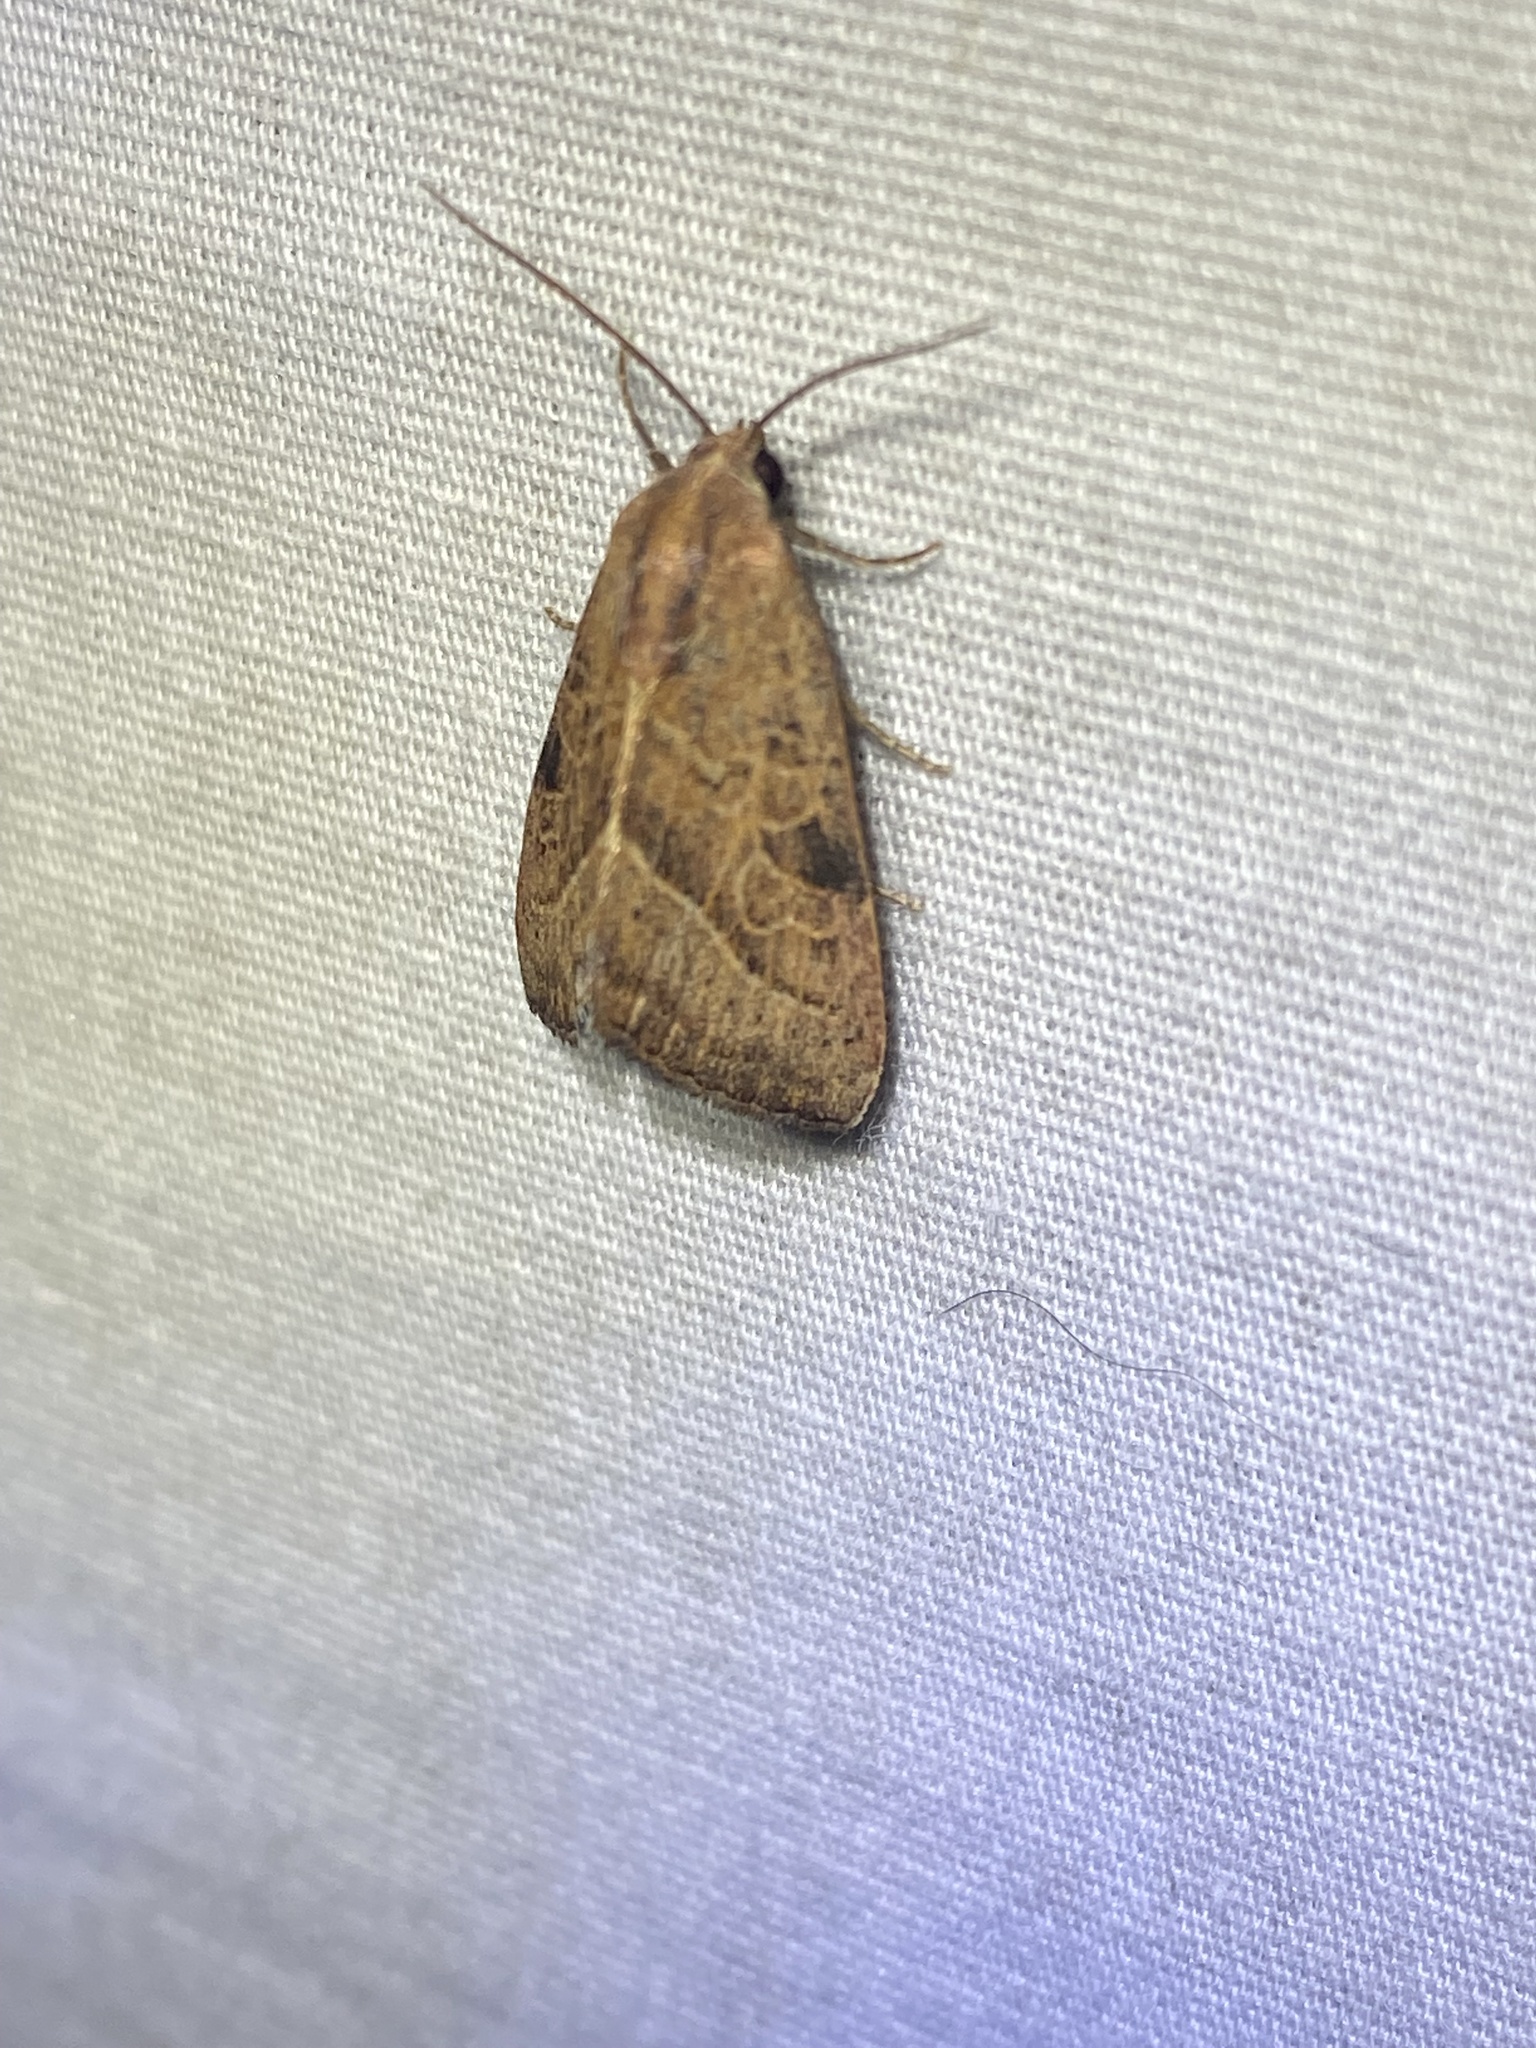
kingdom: Animalia
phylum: Arthropoda
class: Insecta
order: Lepidoptera
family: Noctuidae
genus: Galgula
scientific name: Galgula partita
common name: Wedgeling
